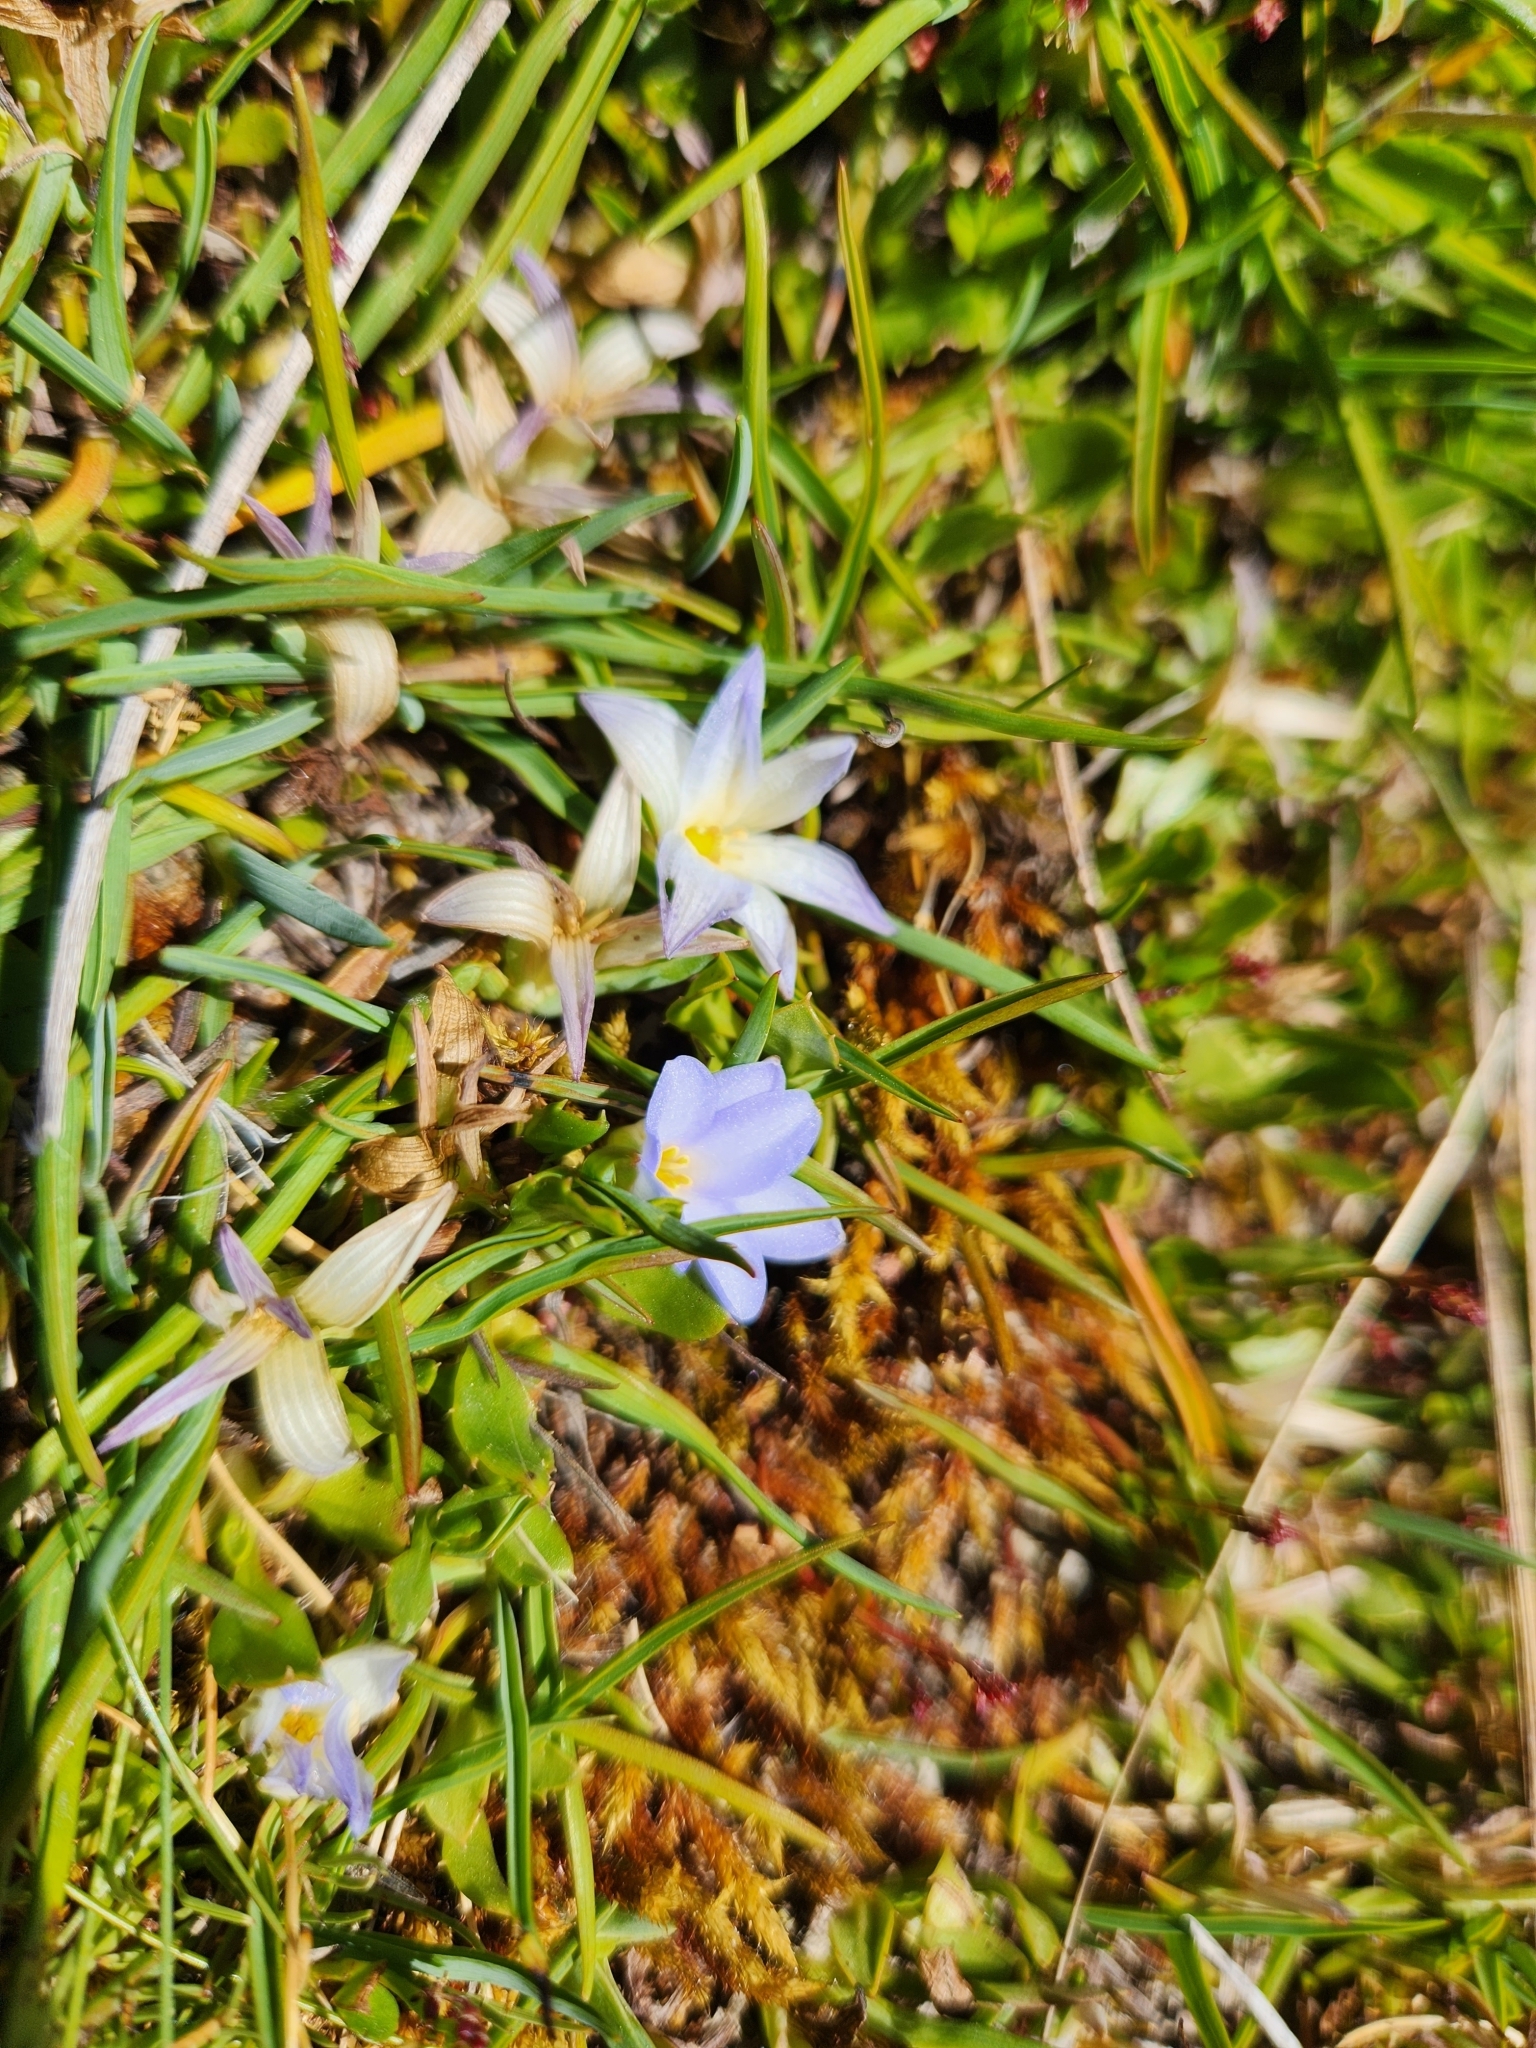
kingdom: Plantae
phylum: Tracheophyta
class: Liliopsida
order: Asparagales
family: Asphodelaceae
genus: Herpolirion
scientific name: Herpolirion novae-zelandiae
